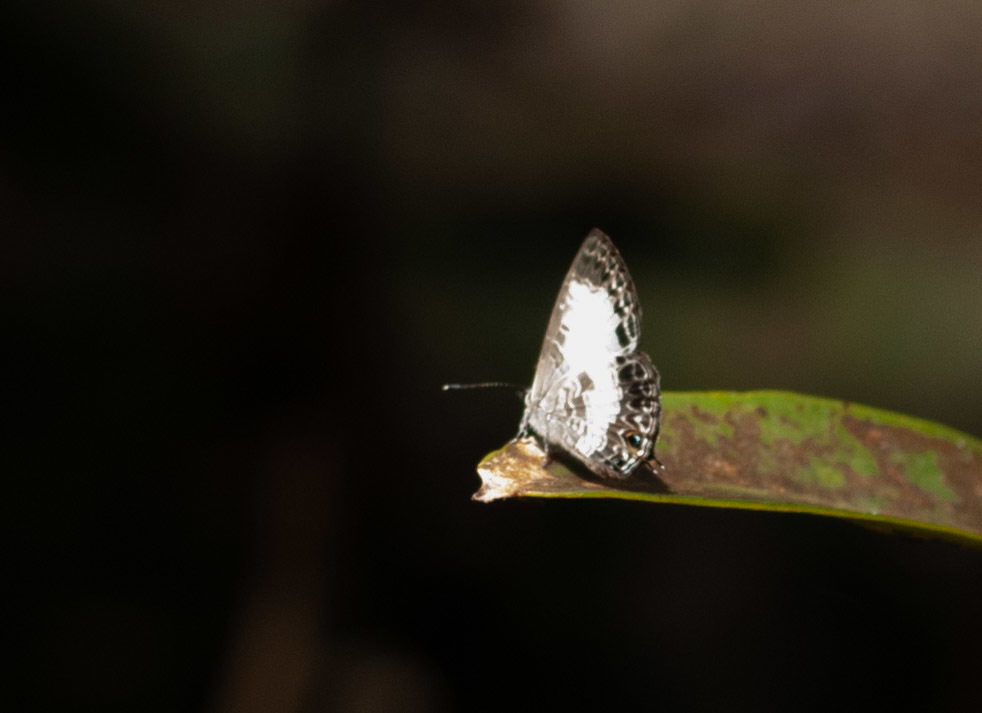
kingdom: Animalia
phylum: Arthropoda
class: Insecta
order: Lepidoptera
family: Lycaenidae
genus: Nacaduba
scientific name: Nacaduba kurava
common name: Transparent 6-line blue
